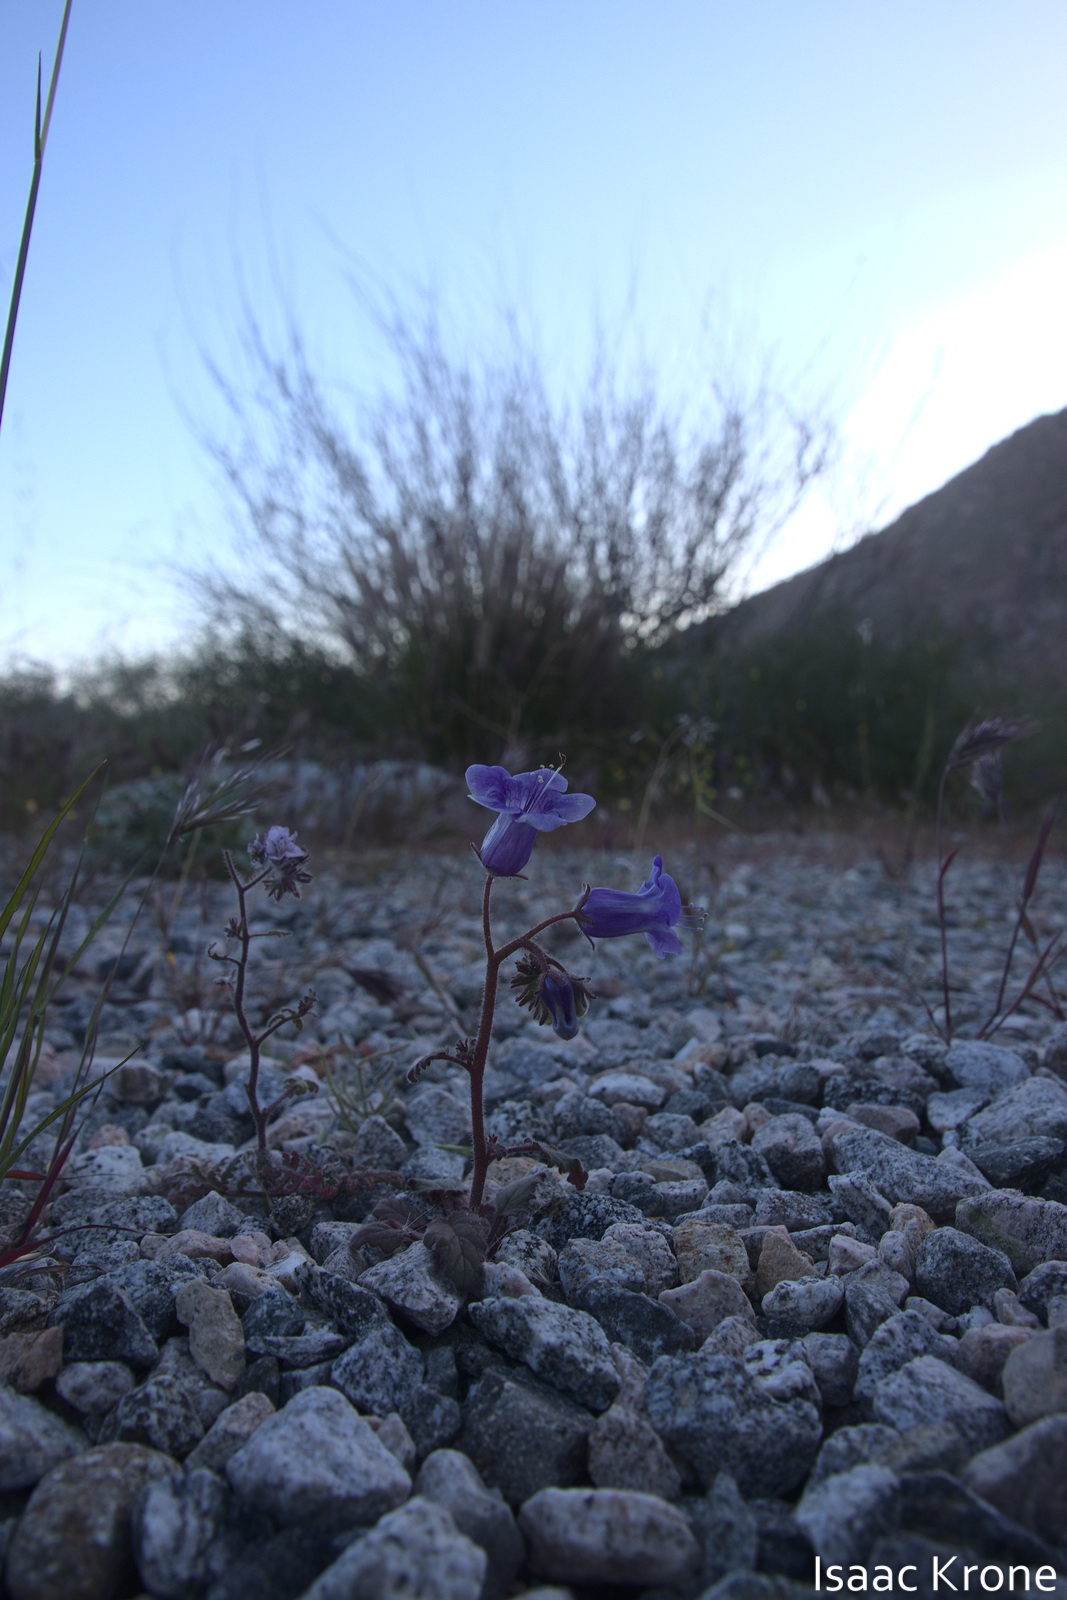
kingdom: Plantae
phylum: Tracheophyta
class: Magnoliopsida
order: Boraginales
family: Hydrophyllaceae
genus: Phacelia
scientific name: Phacelia minor
